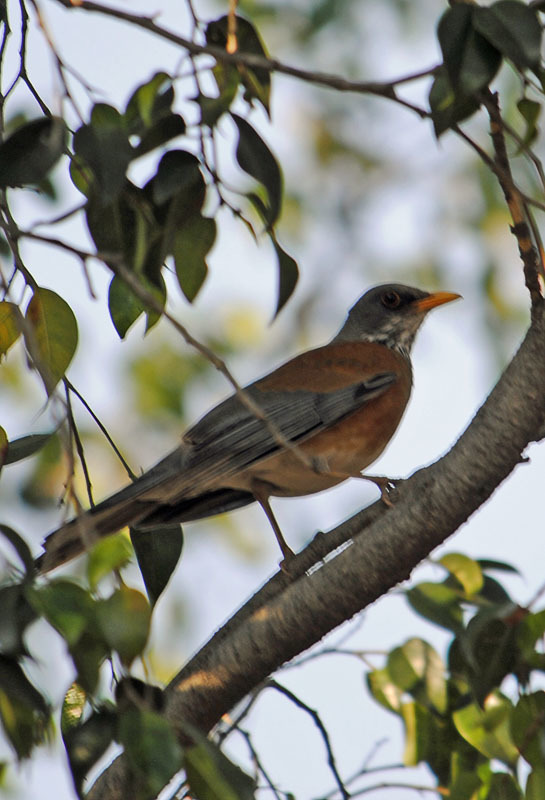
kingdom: Animalia
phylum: Chordata
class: Aves
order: Passeriformes
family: Turdidae
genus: Turdus
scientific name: Turdus rufopalliatus
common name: Rufous-backed robin
